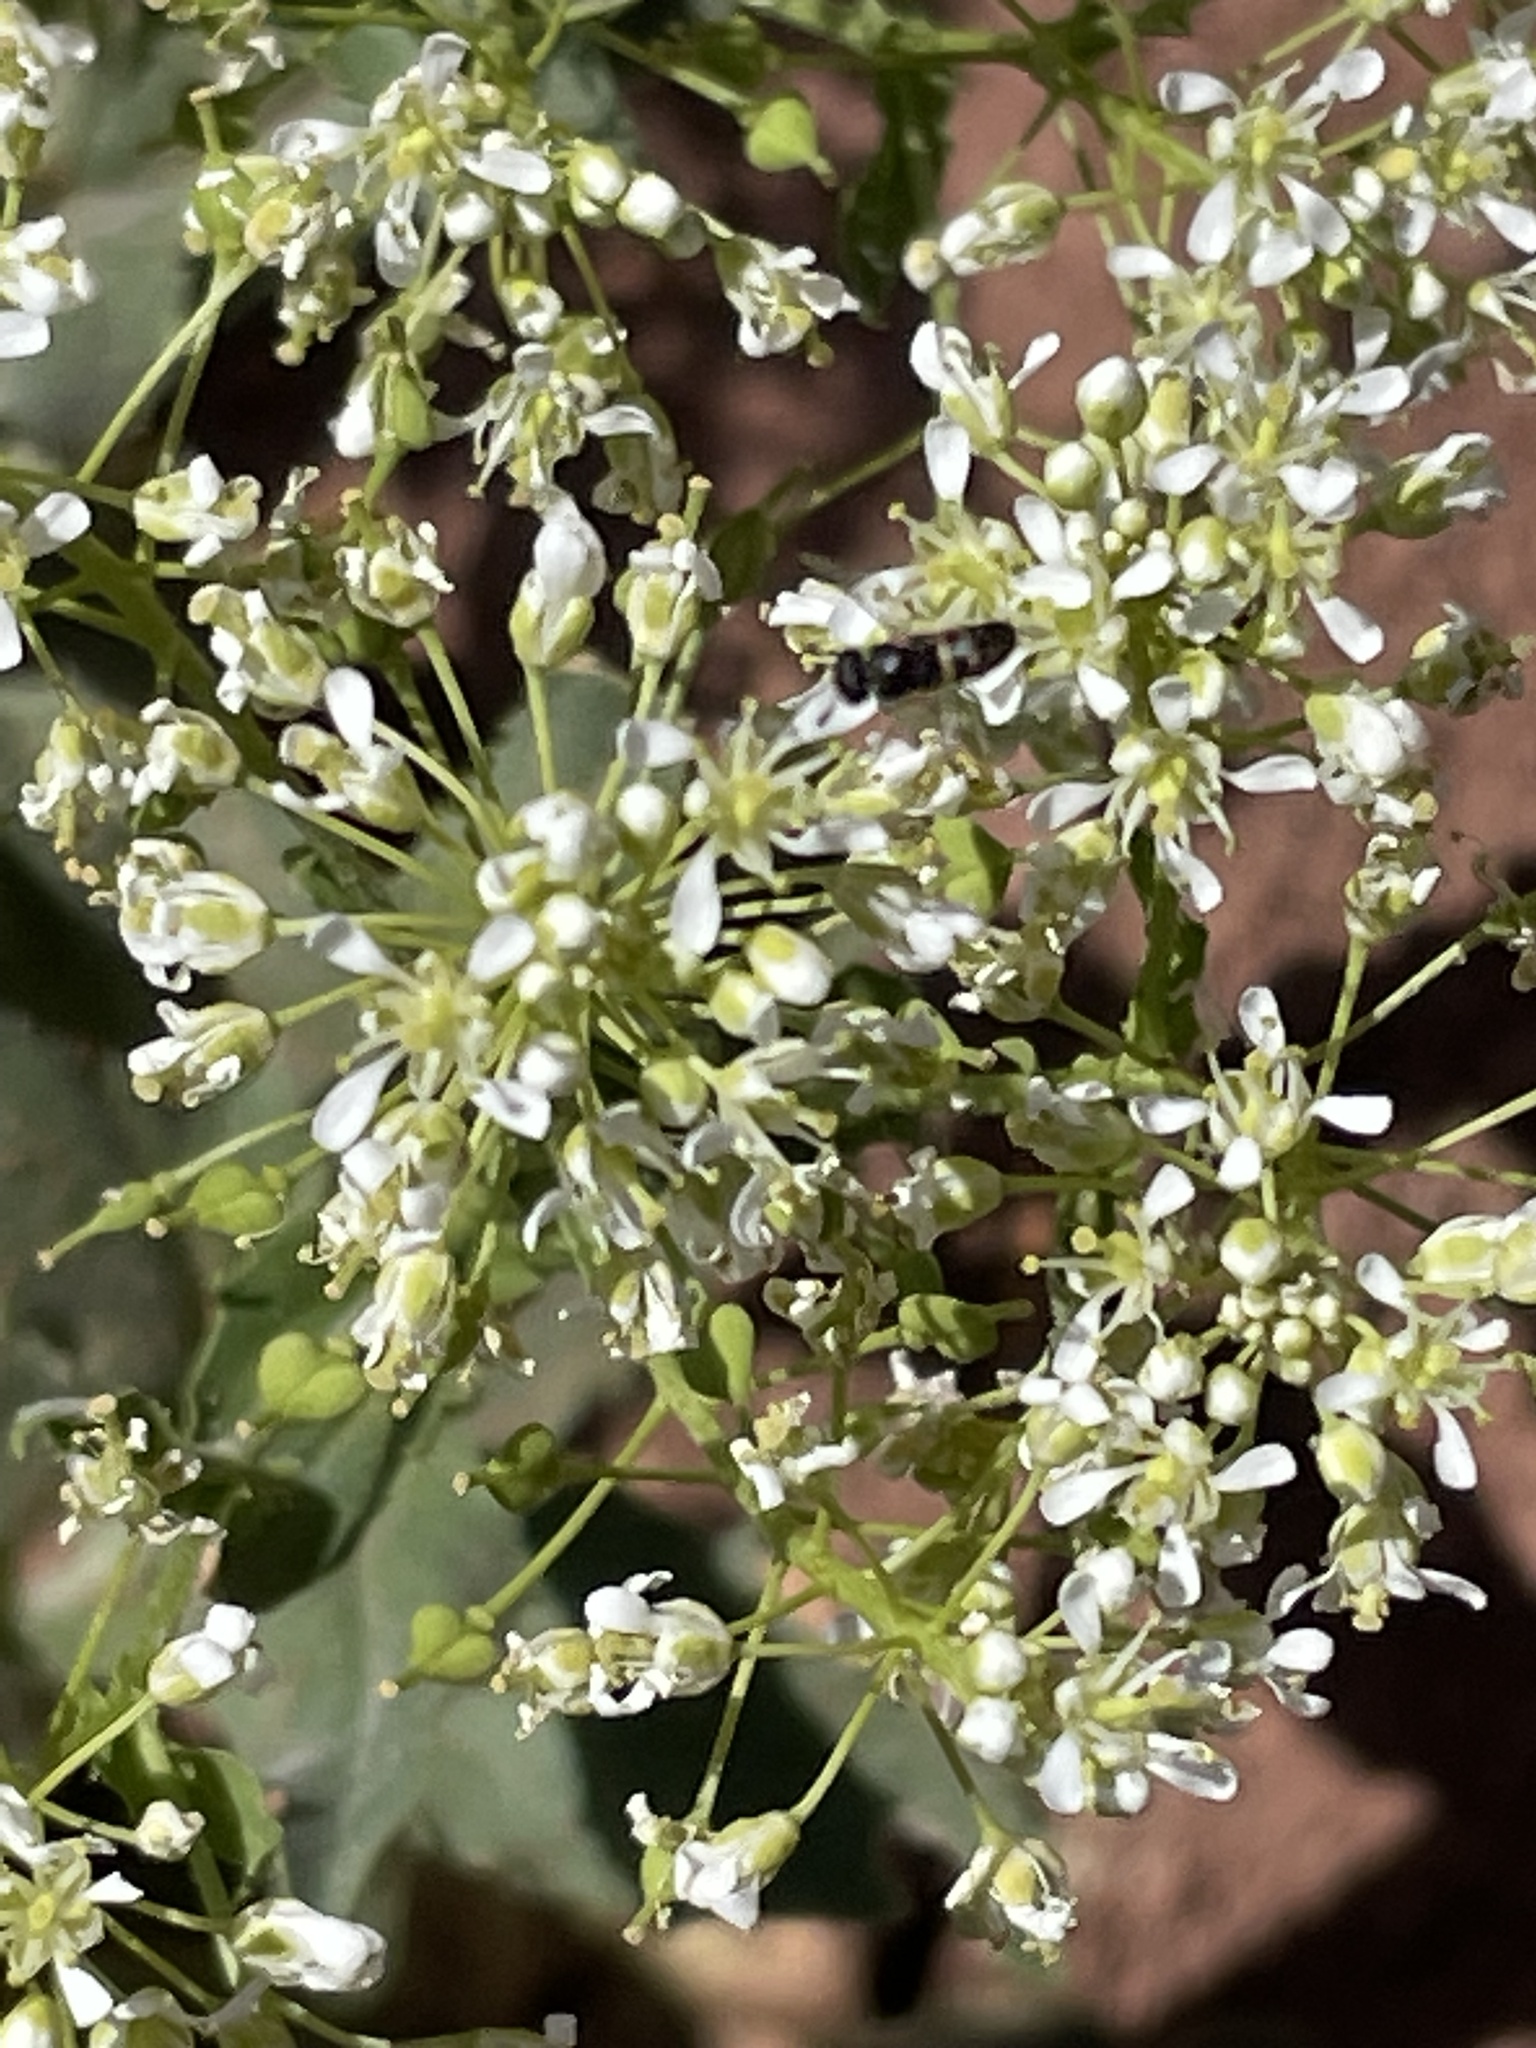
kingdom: Plantae
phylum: Tracheophyta
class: Magnoliopsida
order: Brassicales
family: Brassicaceae
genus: Lepidium
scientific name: Lepidium draba
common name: Hoary cress
